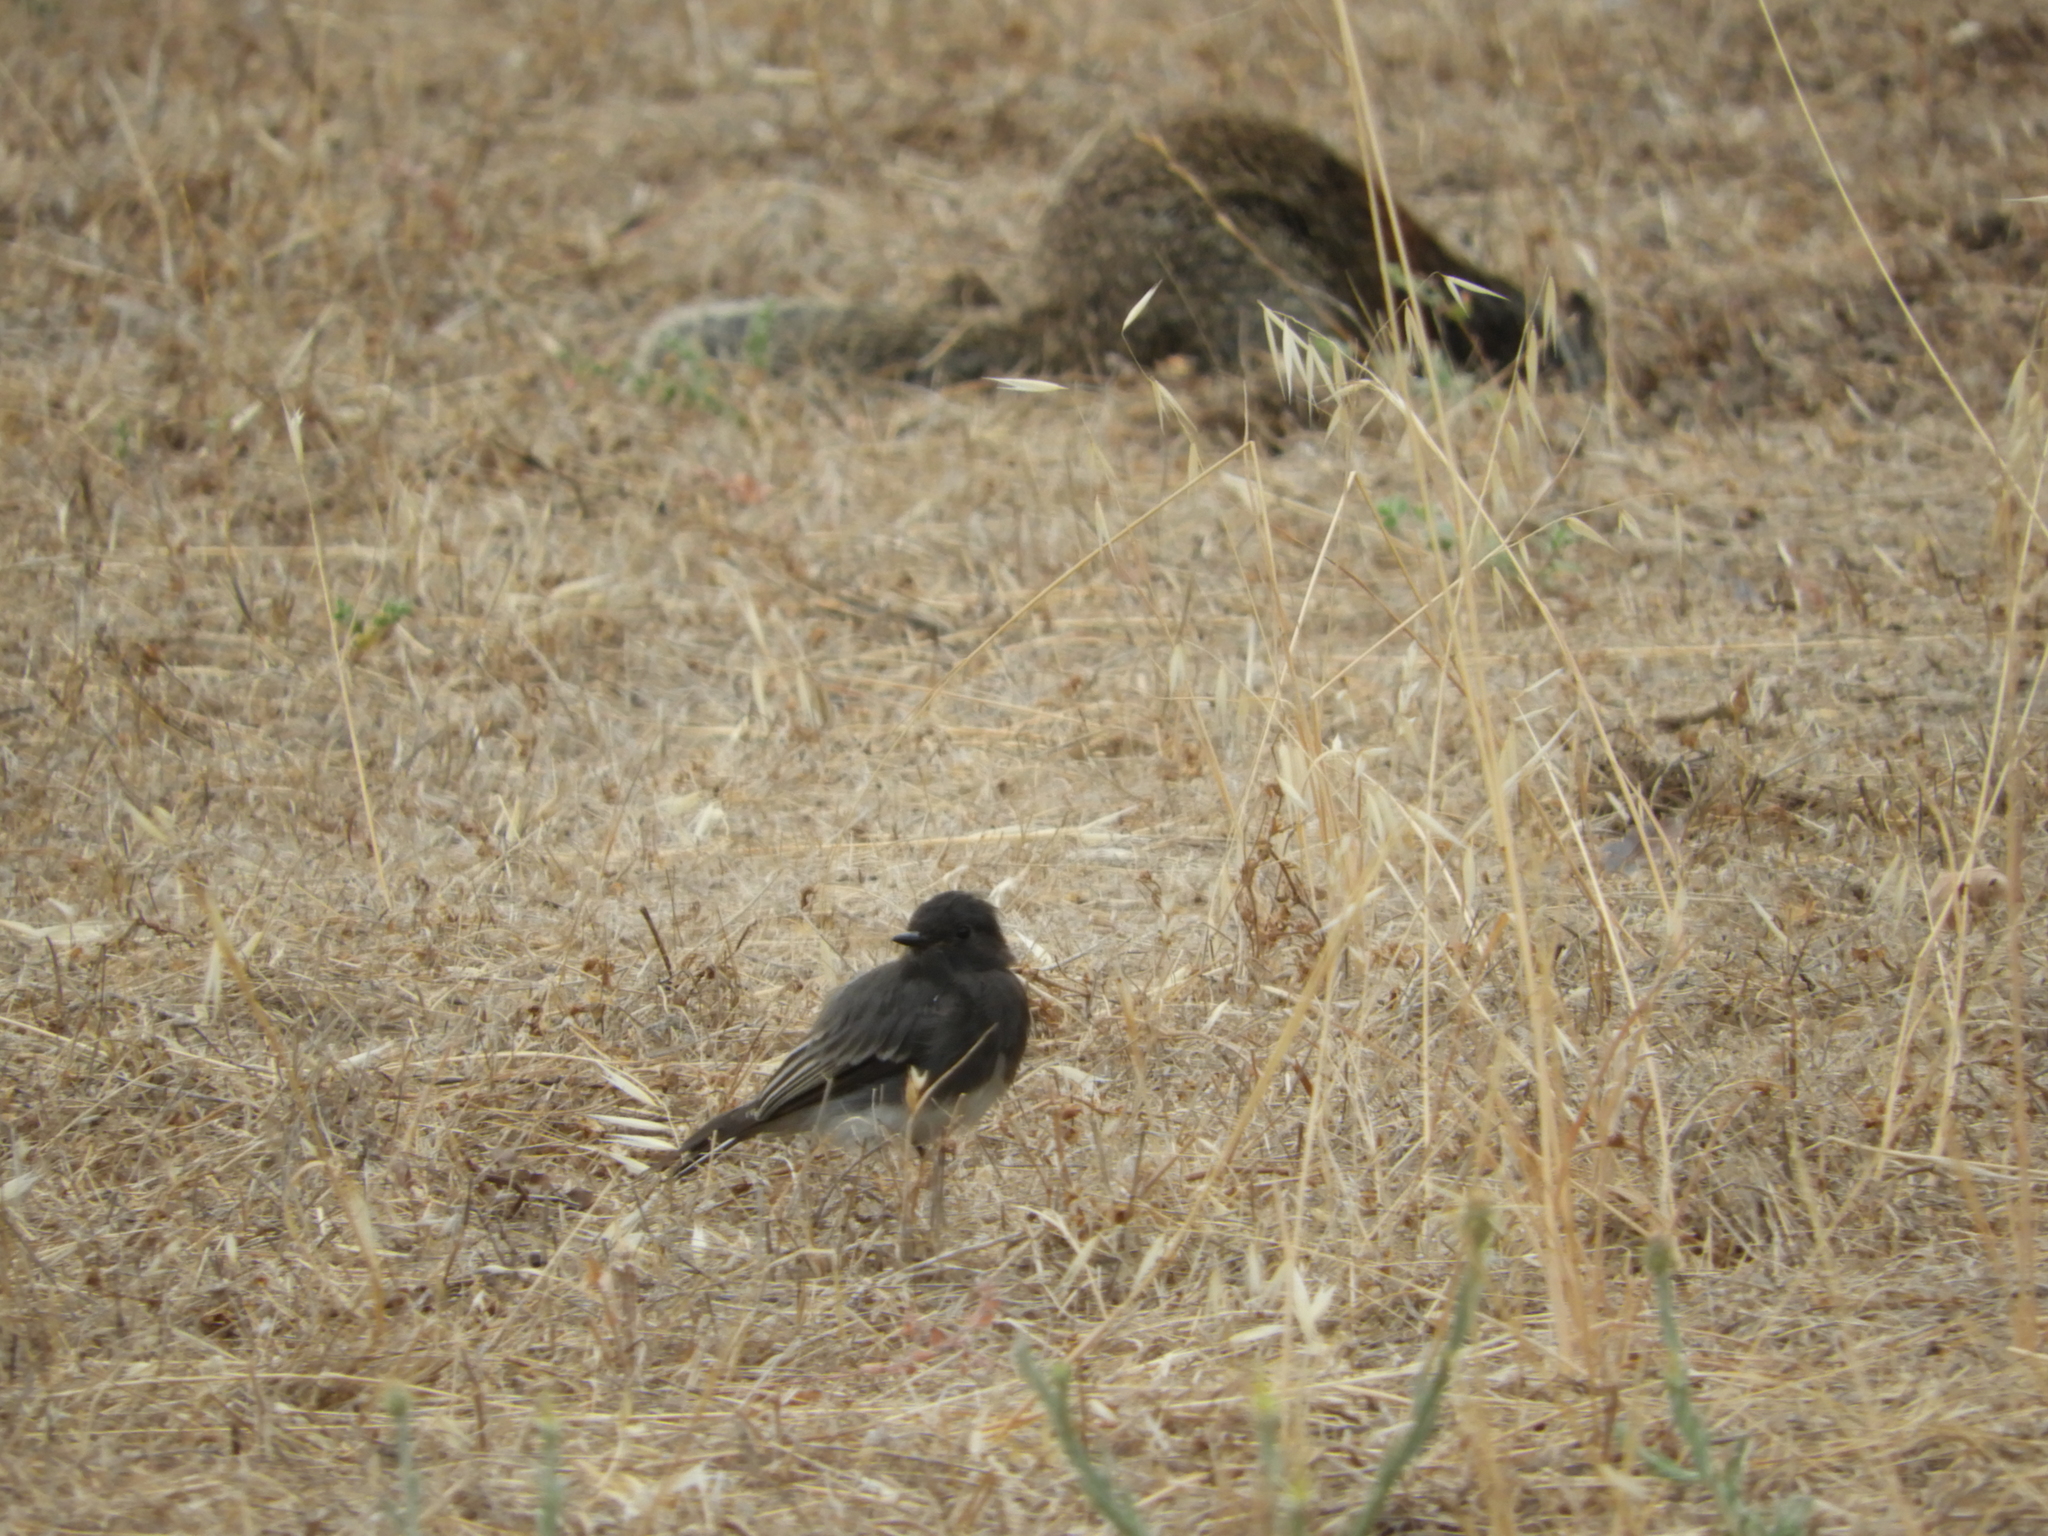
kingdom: Animalia
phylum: Chordata
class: Aves
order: Passeriformes
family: Tyrannidae
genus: Sayornis
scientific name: Sayornis nigricans
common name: Black phoebe
